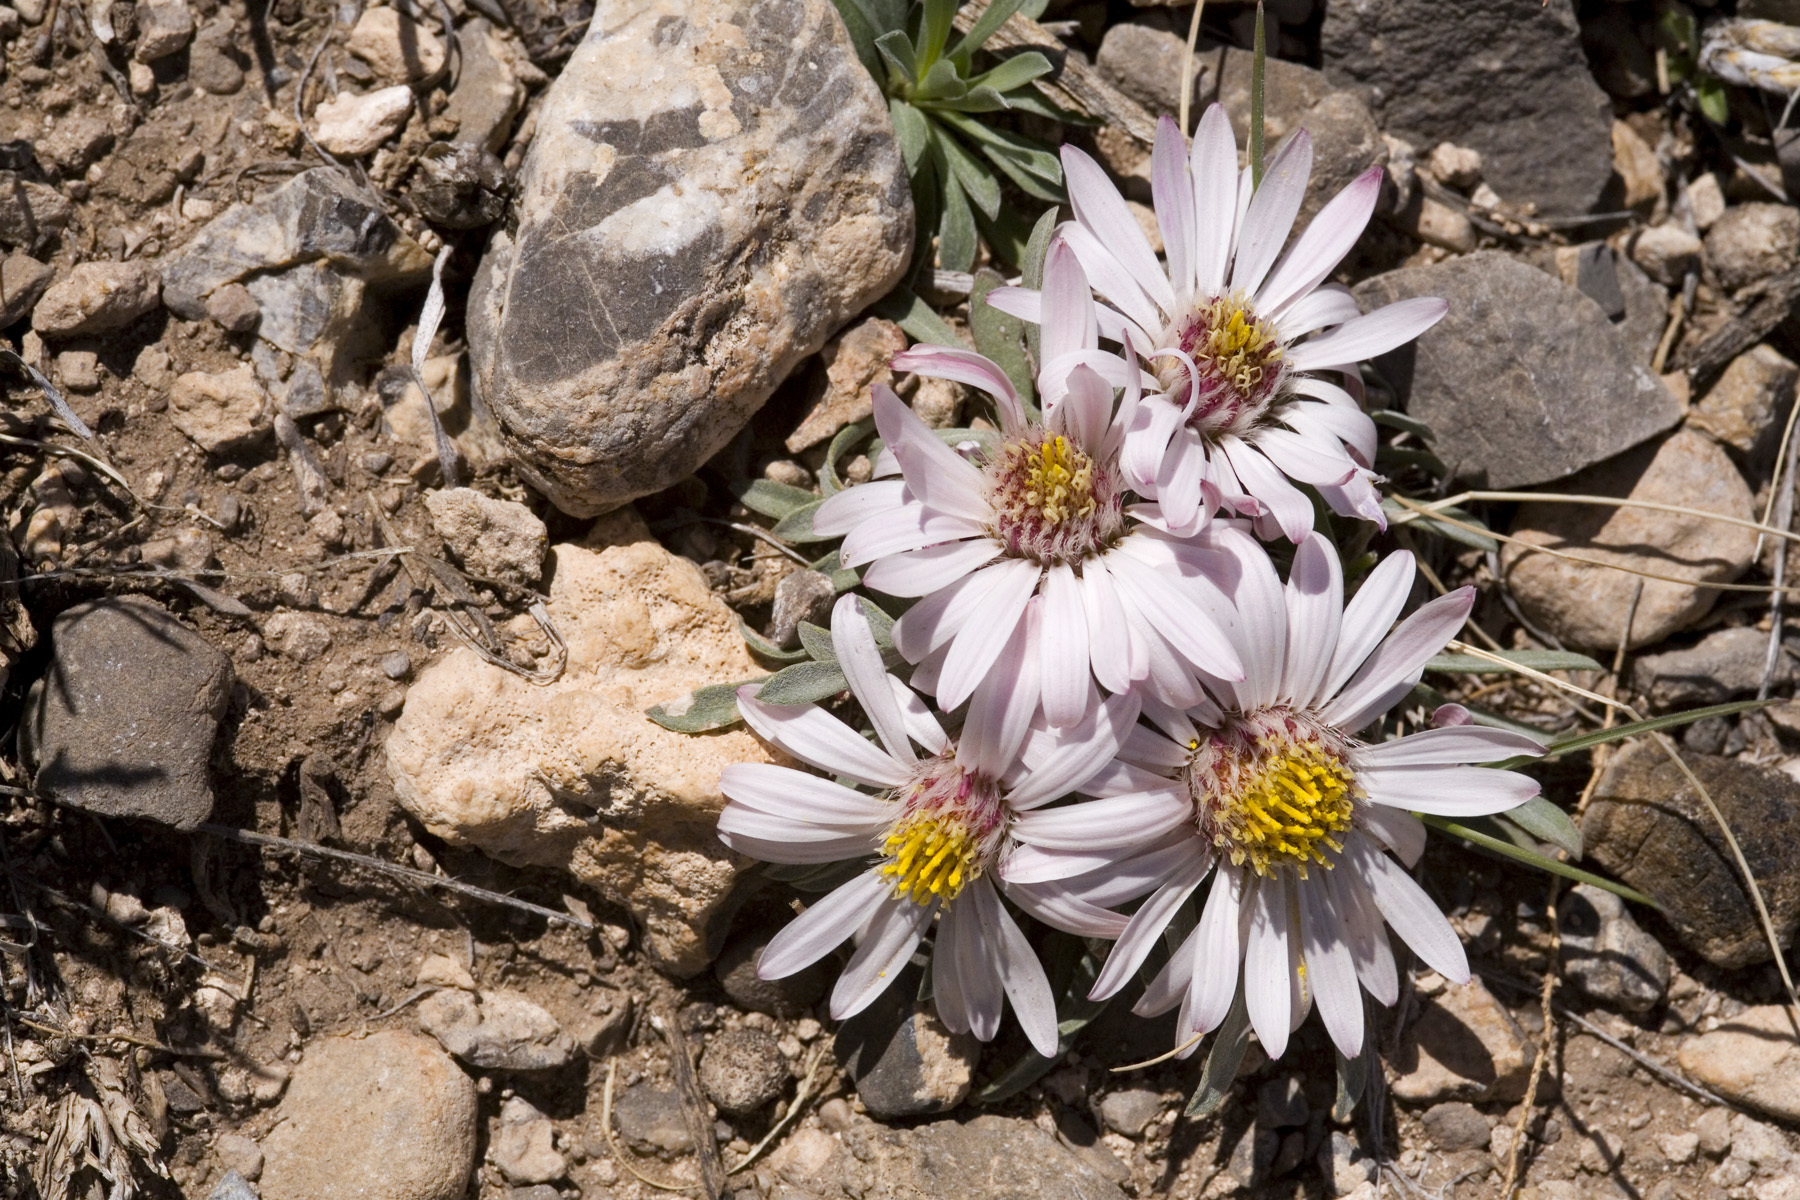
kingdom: Plantae
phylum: Tracheophyta
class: Magnoliopsida
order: Asterales
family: Asteraceae
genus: Townsendia
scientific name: Townsendia exscapa
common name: Dwarf townsendia
